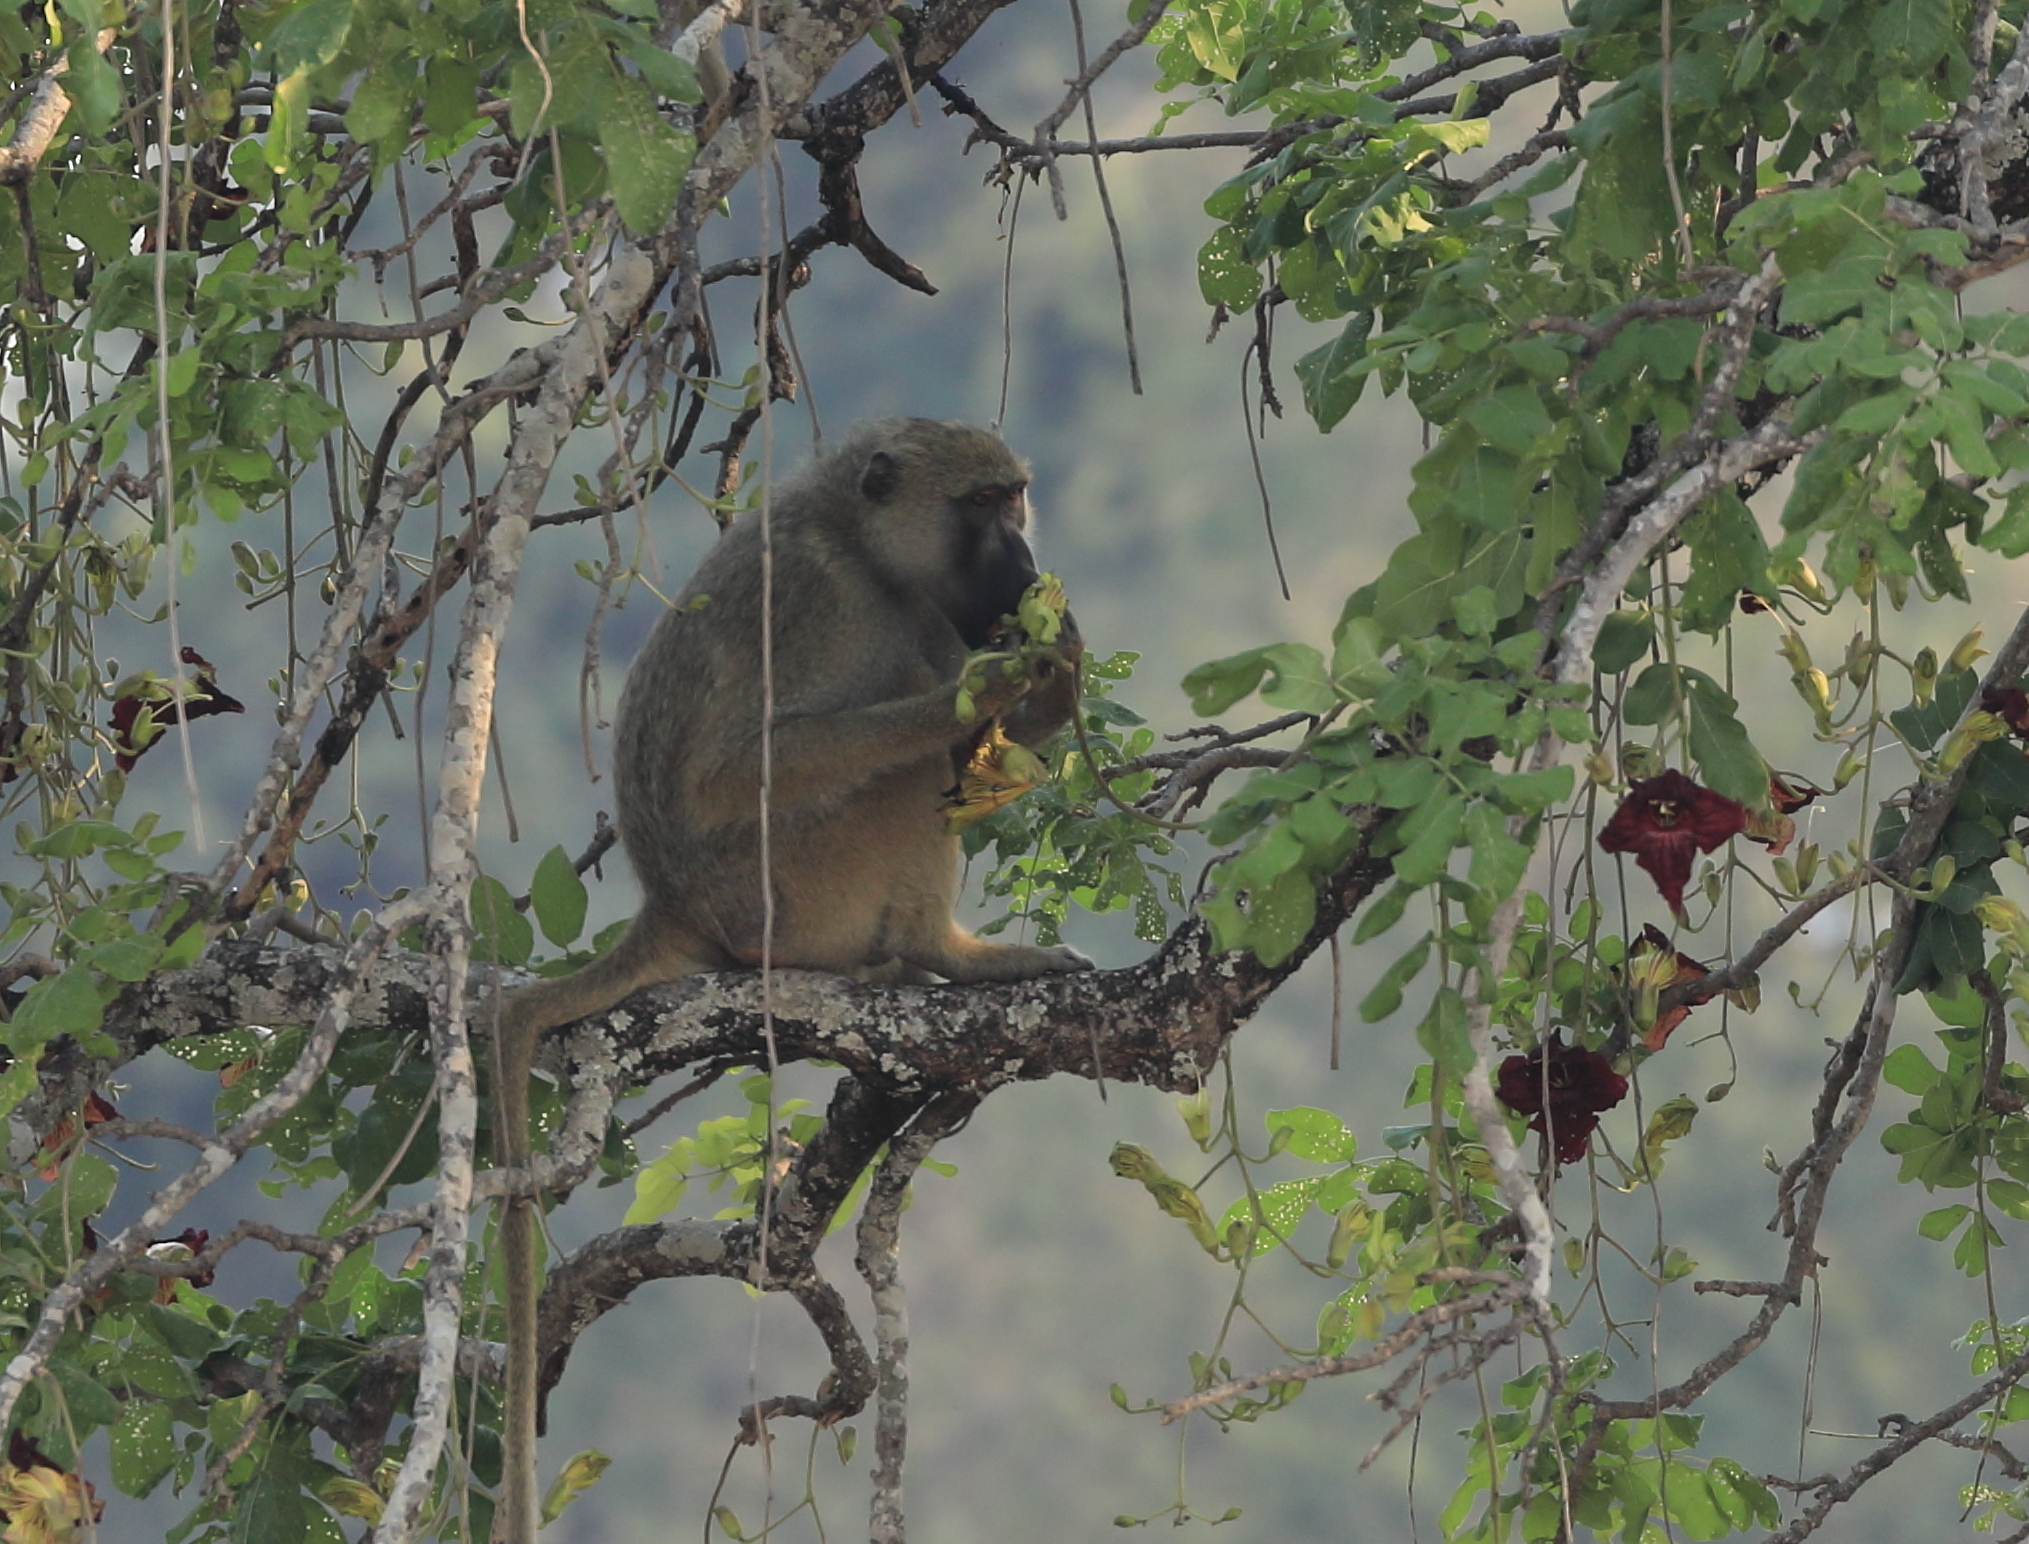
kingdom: Animalia
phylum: Chordata
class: Mammalia
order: Primates
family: Cercopithecidae
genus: Papio
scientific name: Papio cynocephalus
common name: Yellow baboon
